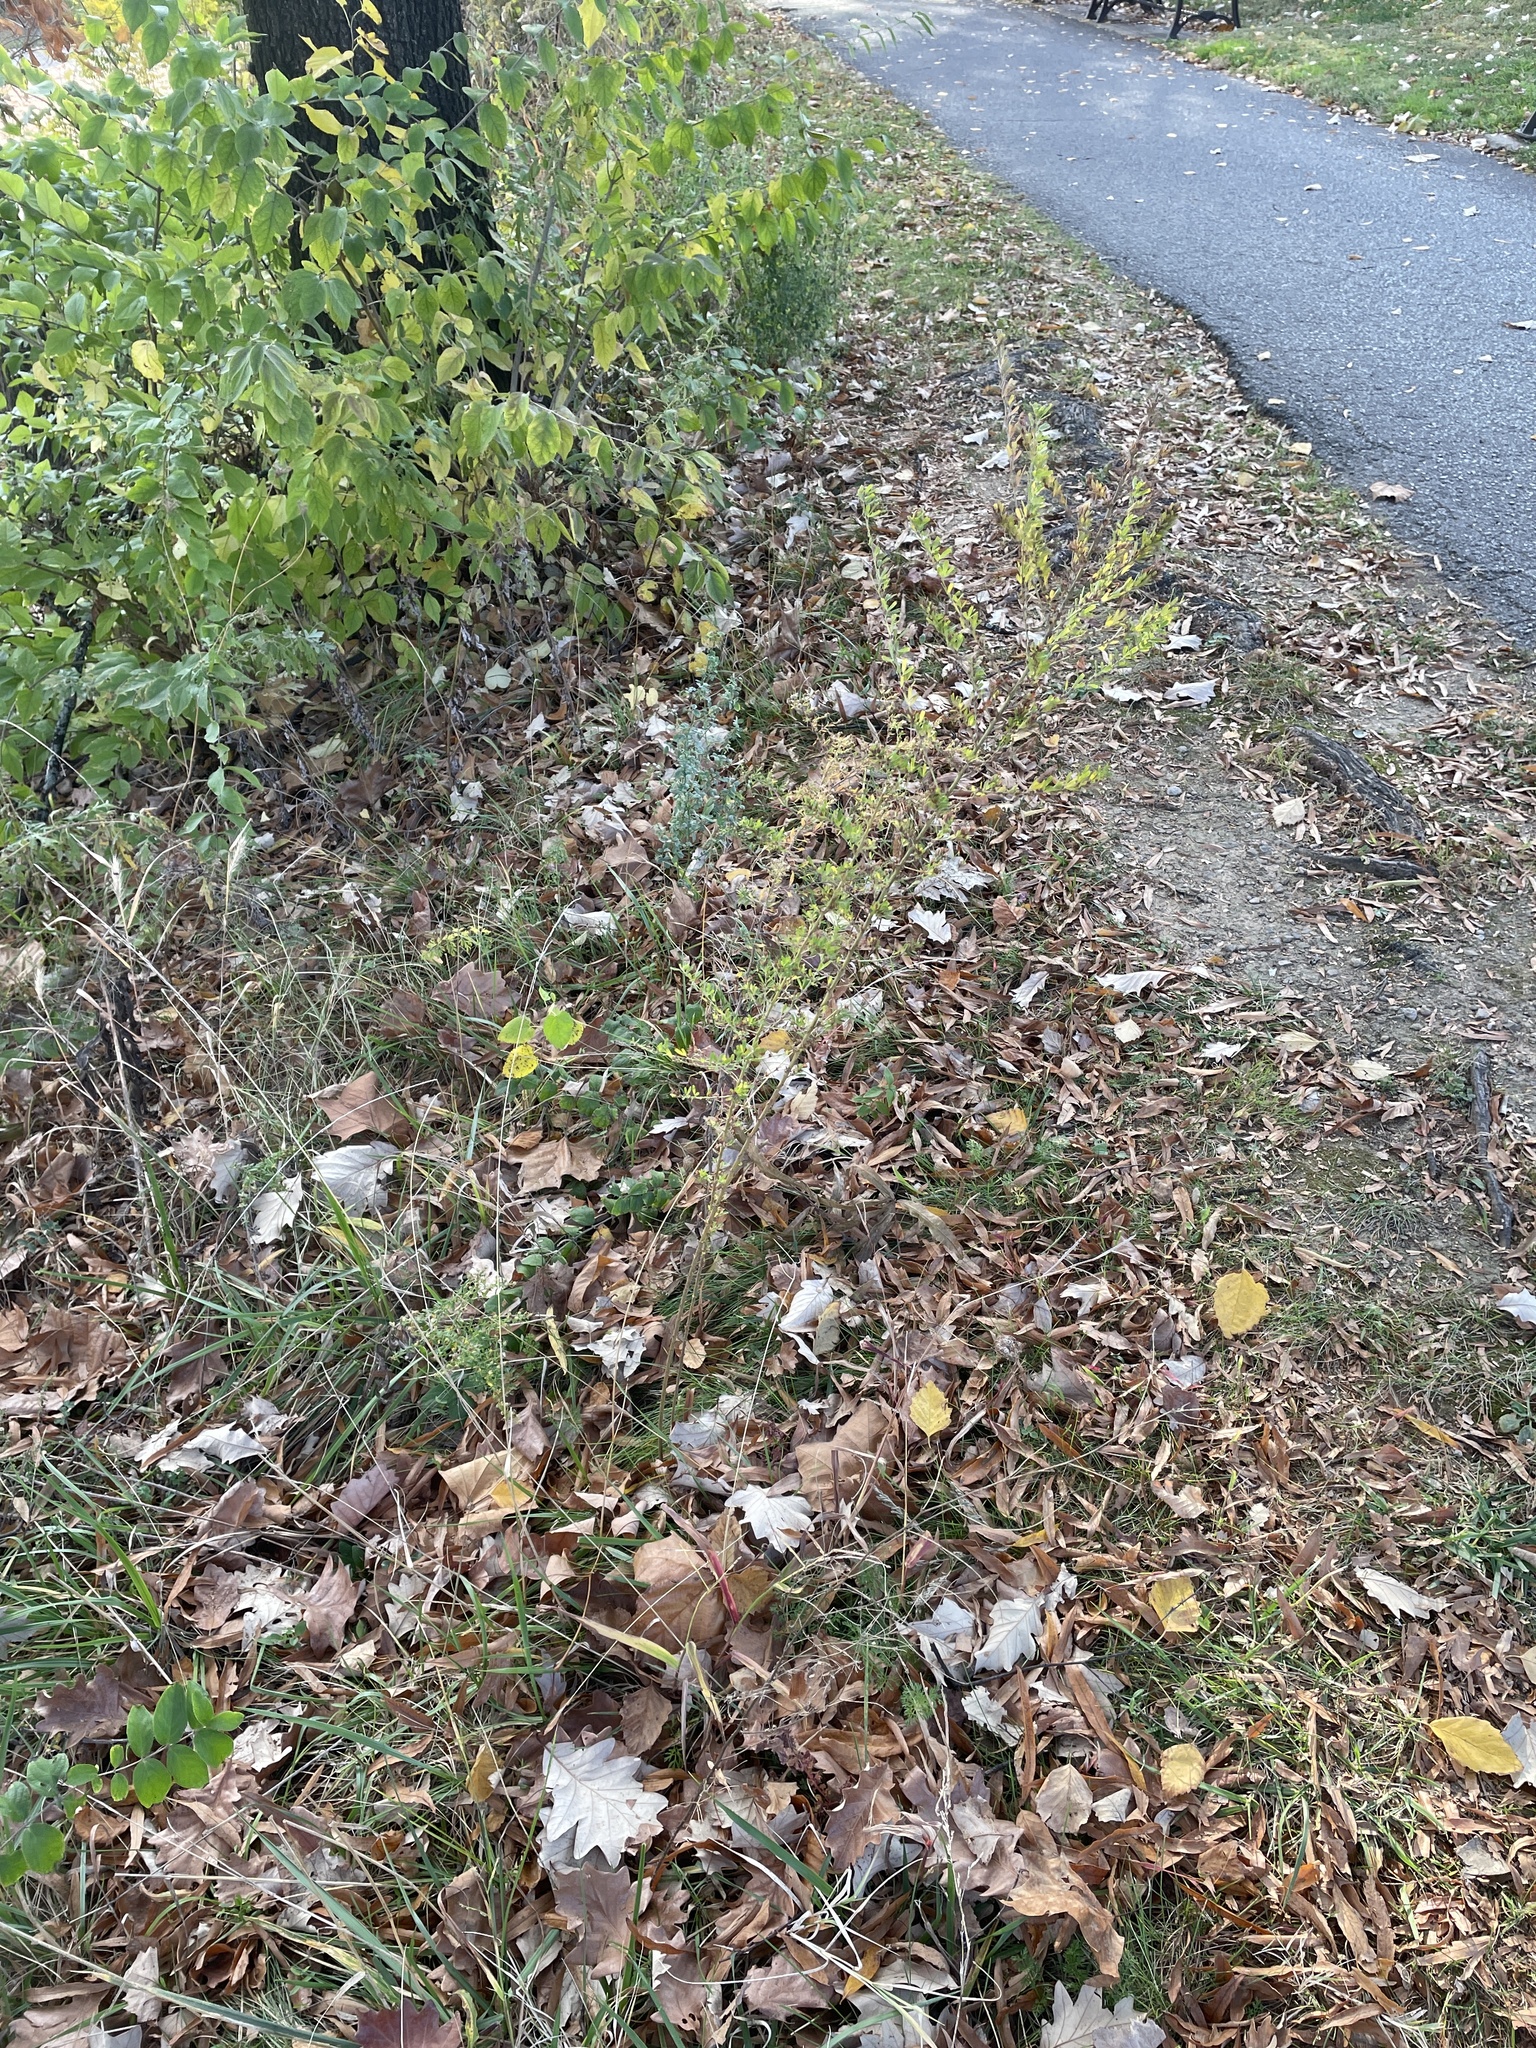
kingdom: Plantae
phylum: Tracheophyta
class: Magnoliopsida
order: Fabales
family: Fabaceae
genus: Lespedeza
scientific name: Lespedeza cuneata
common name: Chinese bush-clover
